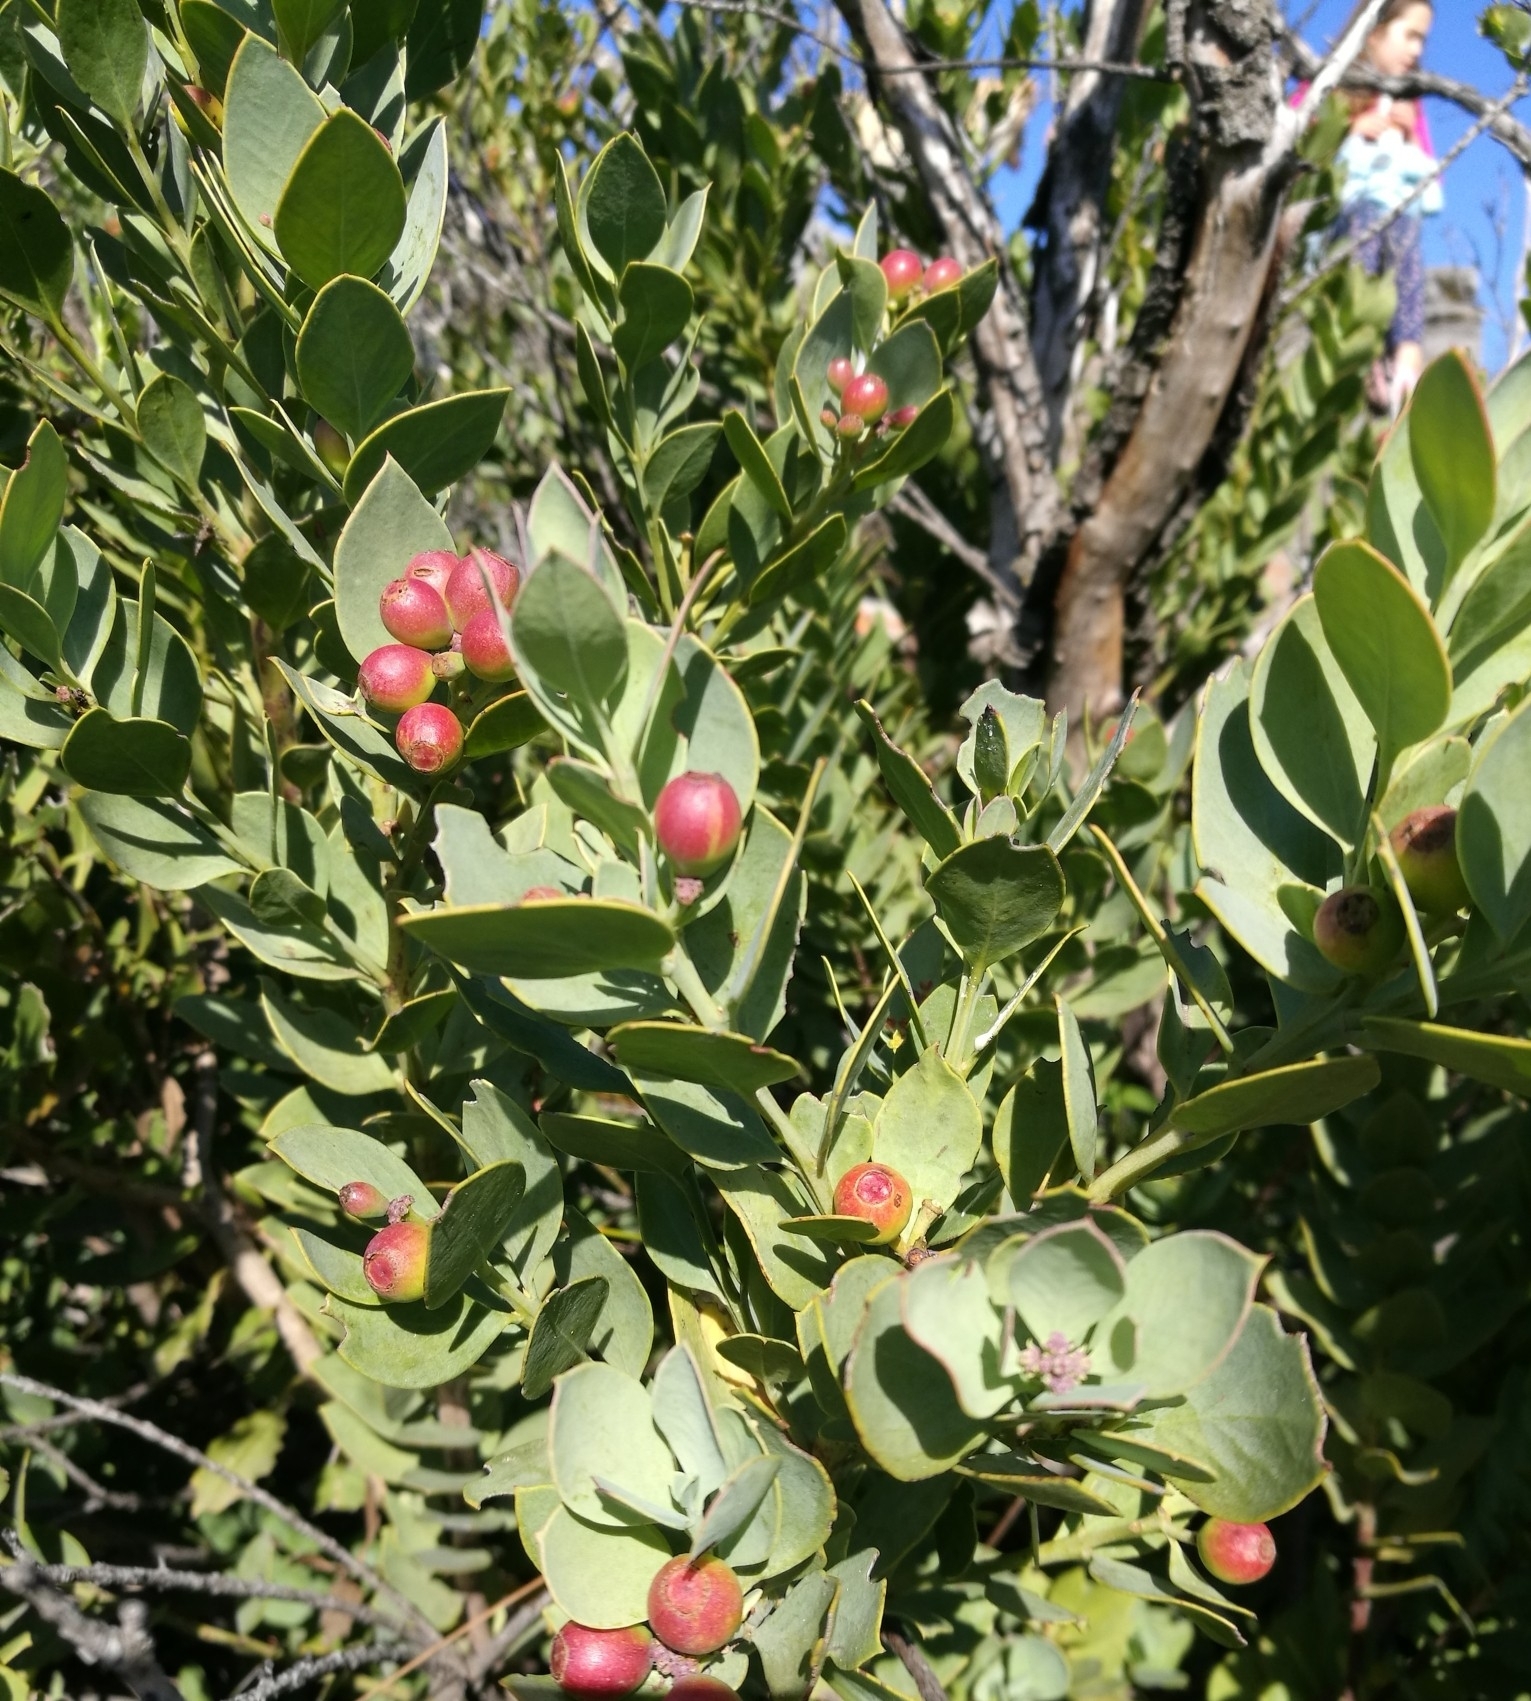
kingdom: Plantae
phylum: Tracheophyta
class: Magnoliopsida
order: Santalales
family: Santalaceae
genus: Osyris
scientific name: Osyris compressa
